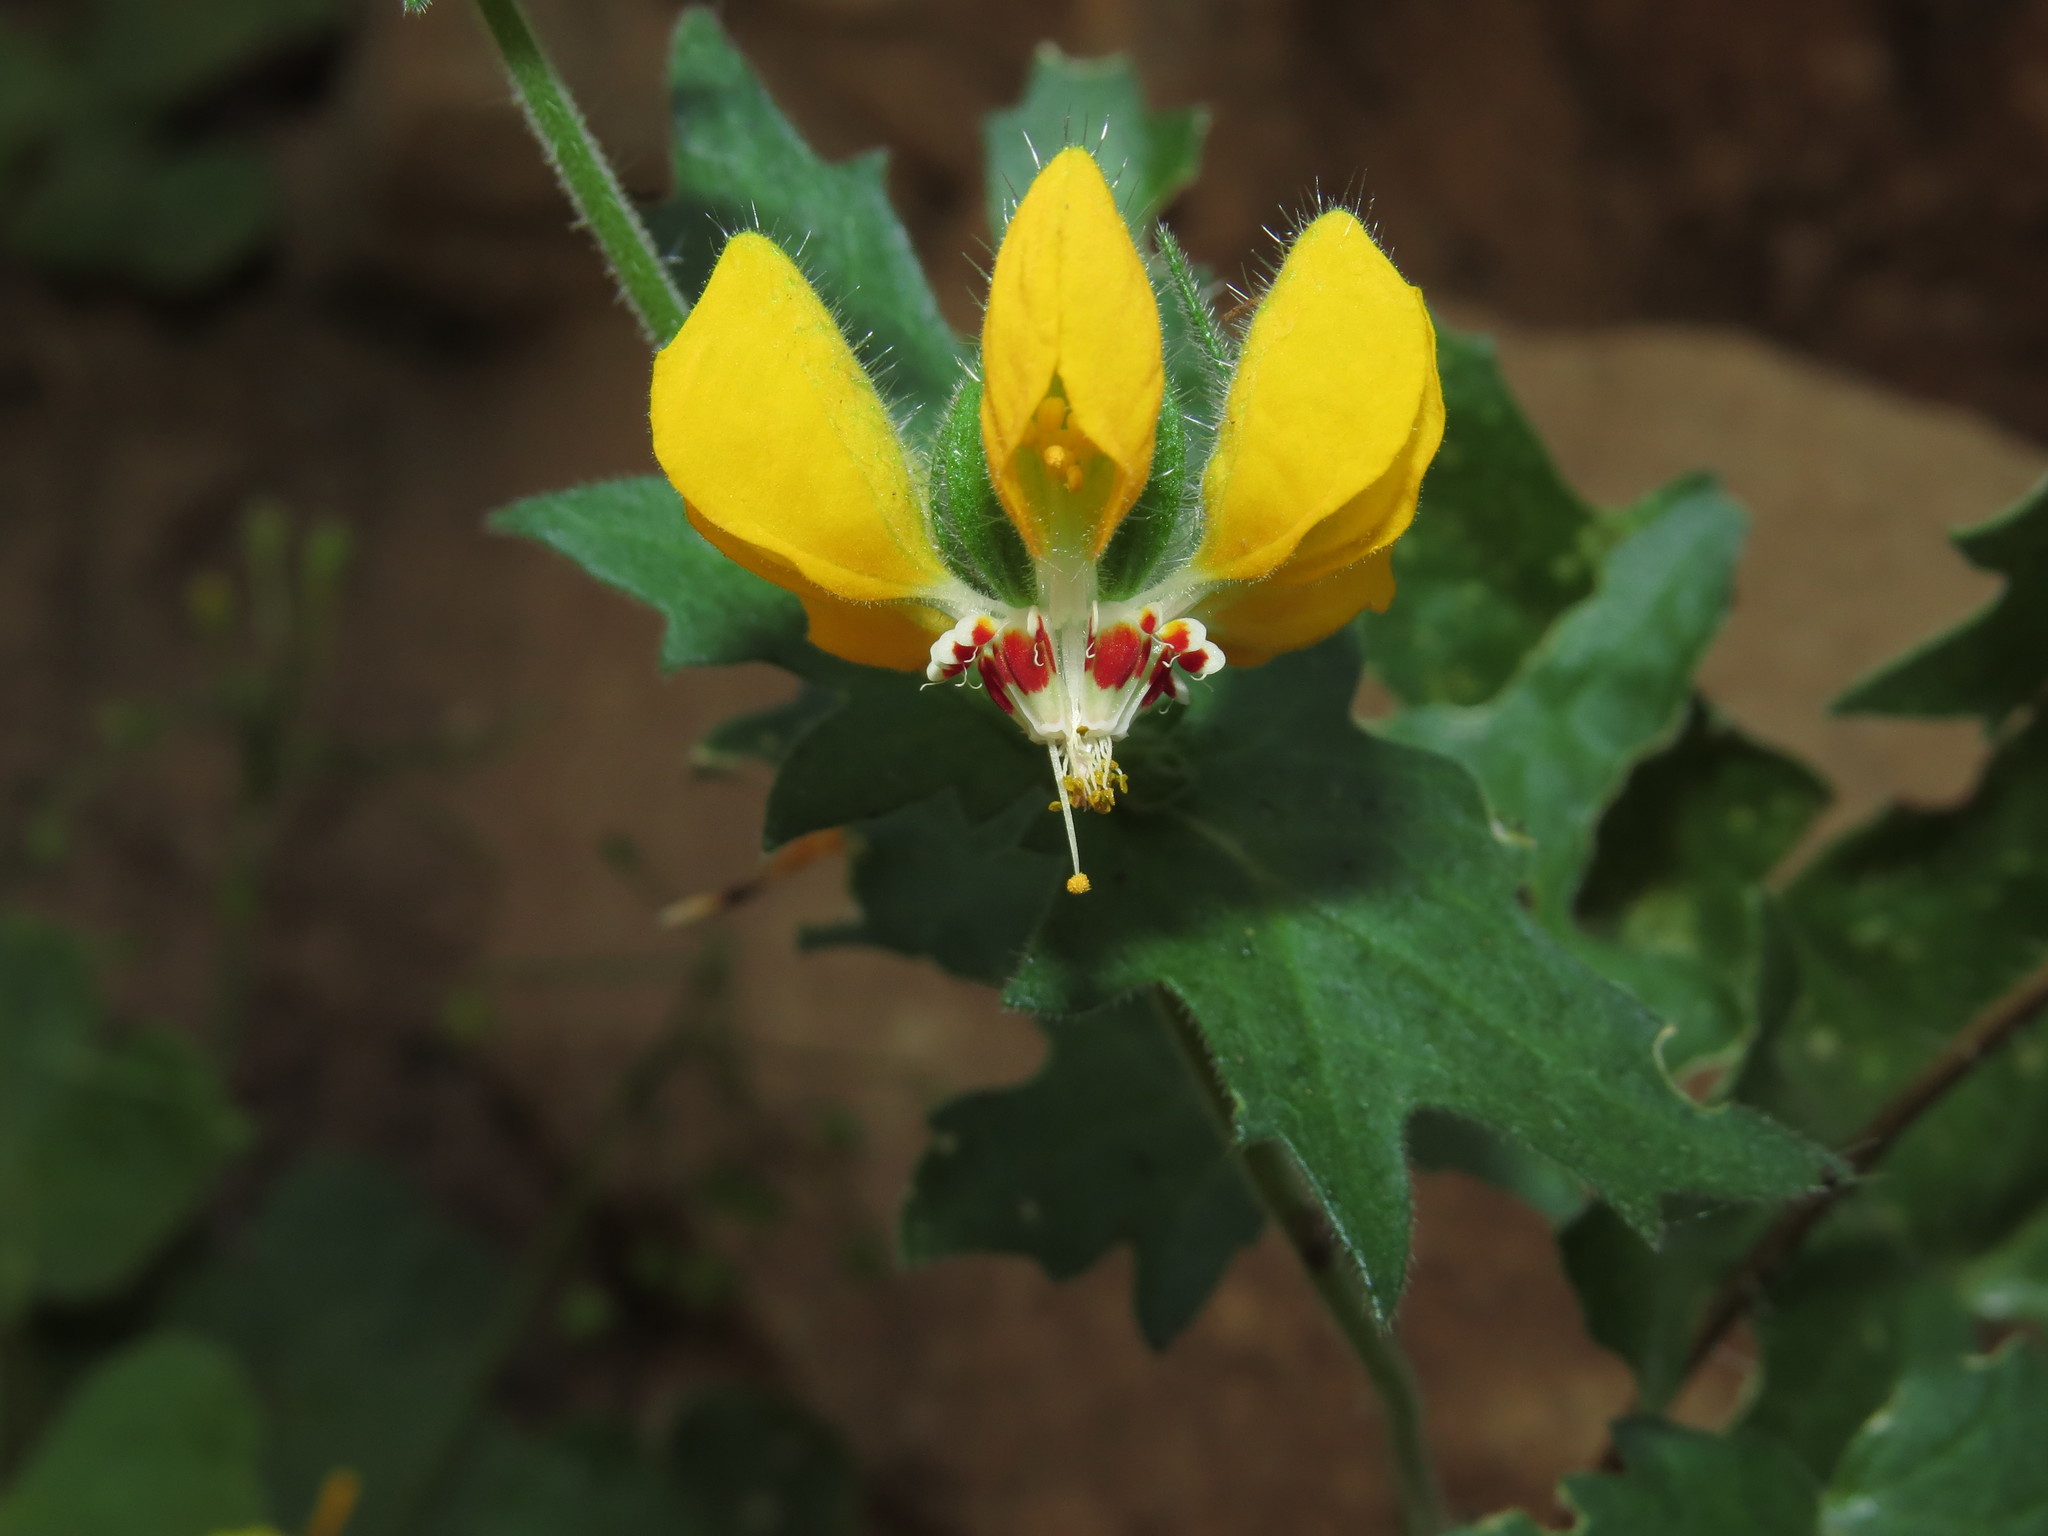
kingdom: Plantae
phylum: Tracheophyta
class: Magnoliopsida
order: Cornales
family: Loasaceae
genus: Loasa
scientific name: Loasa insons
